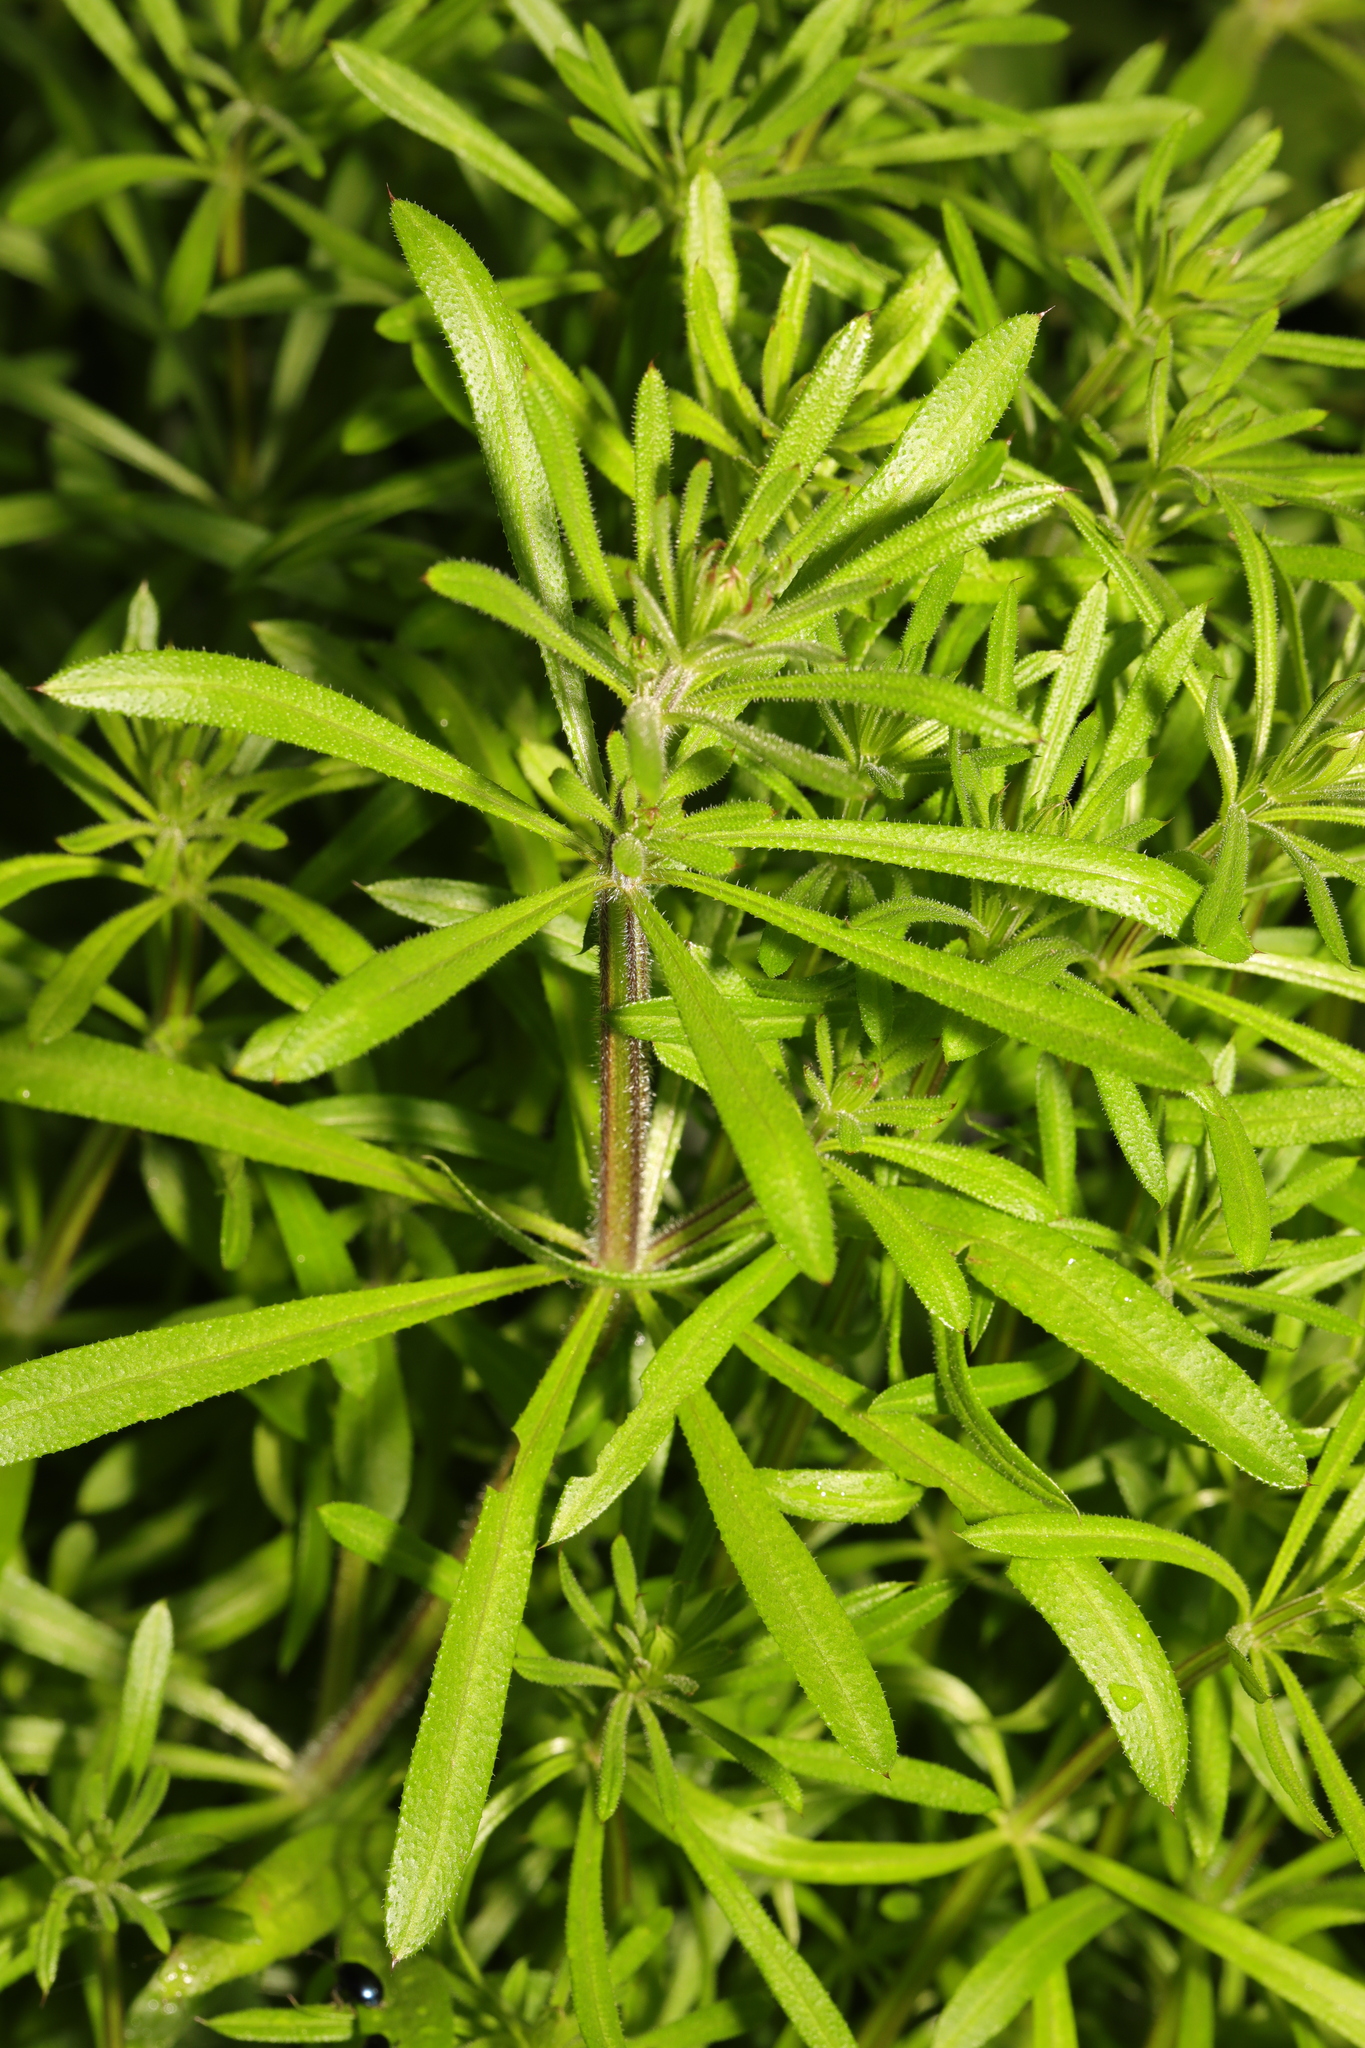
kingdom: Plantae
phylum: Tracheophyta
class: Magnoliopsida
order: Gentianales
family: Rubiaceae
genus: Galium
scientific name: Galium aparine
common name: Cleavers
